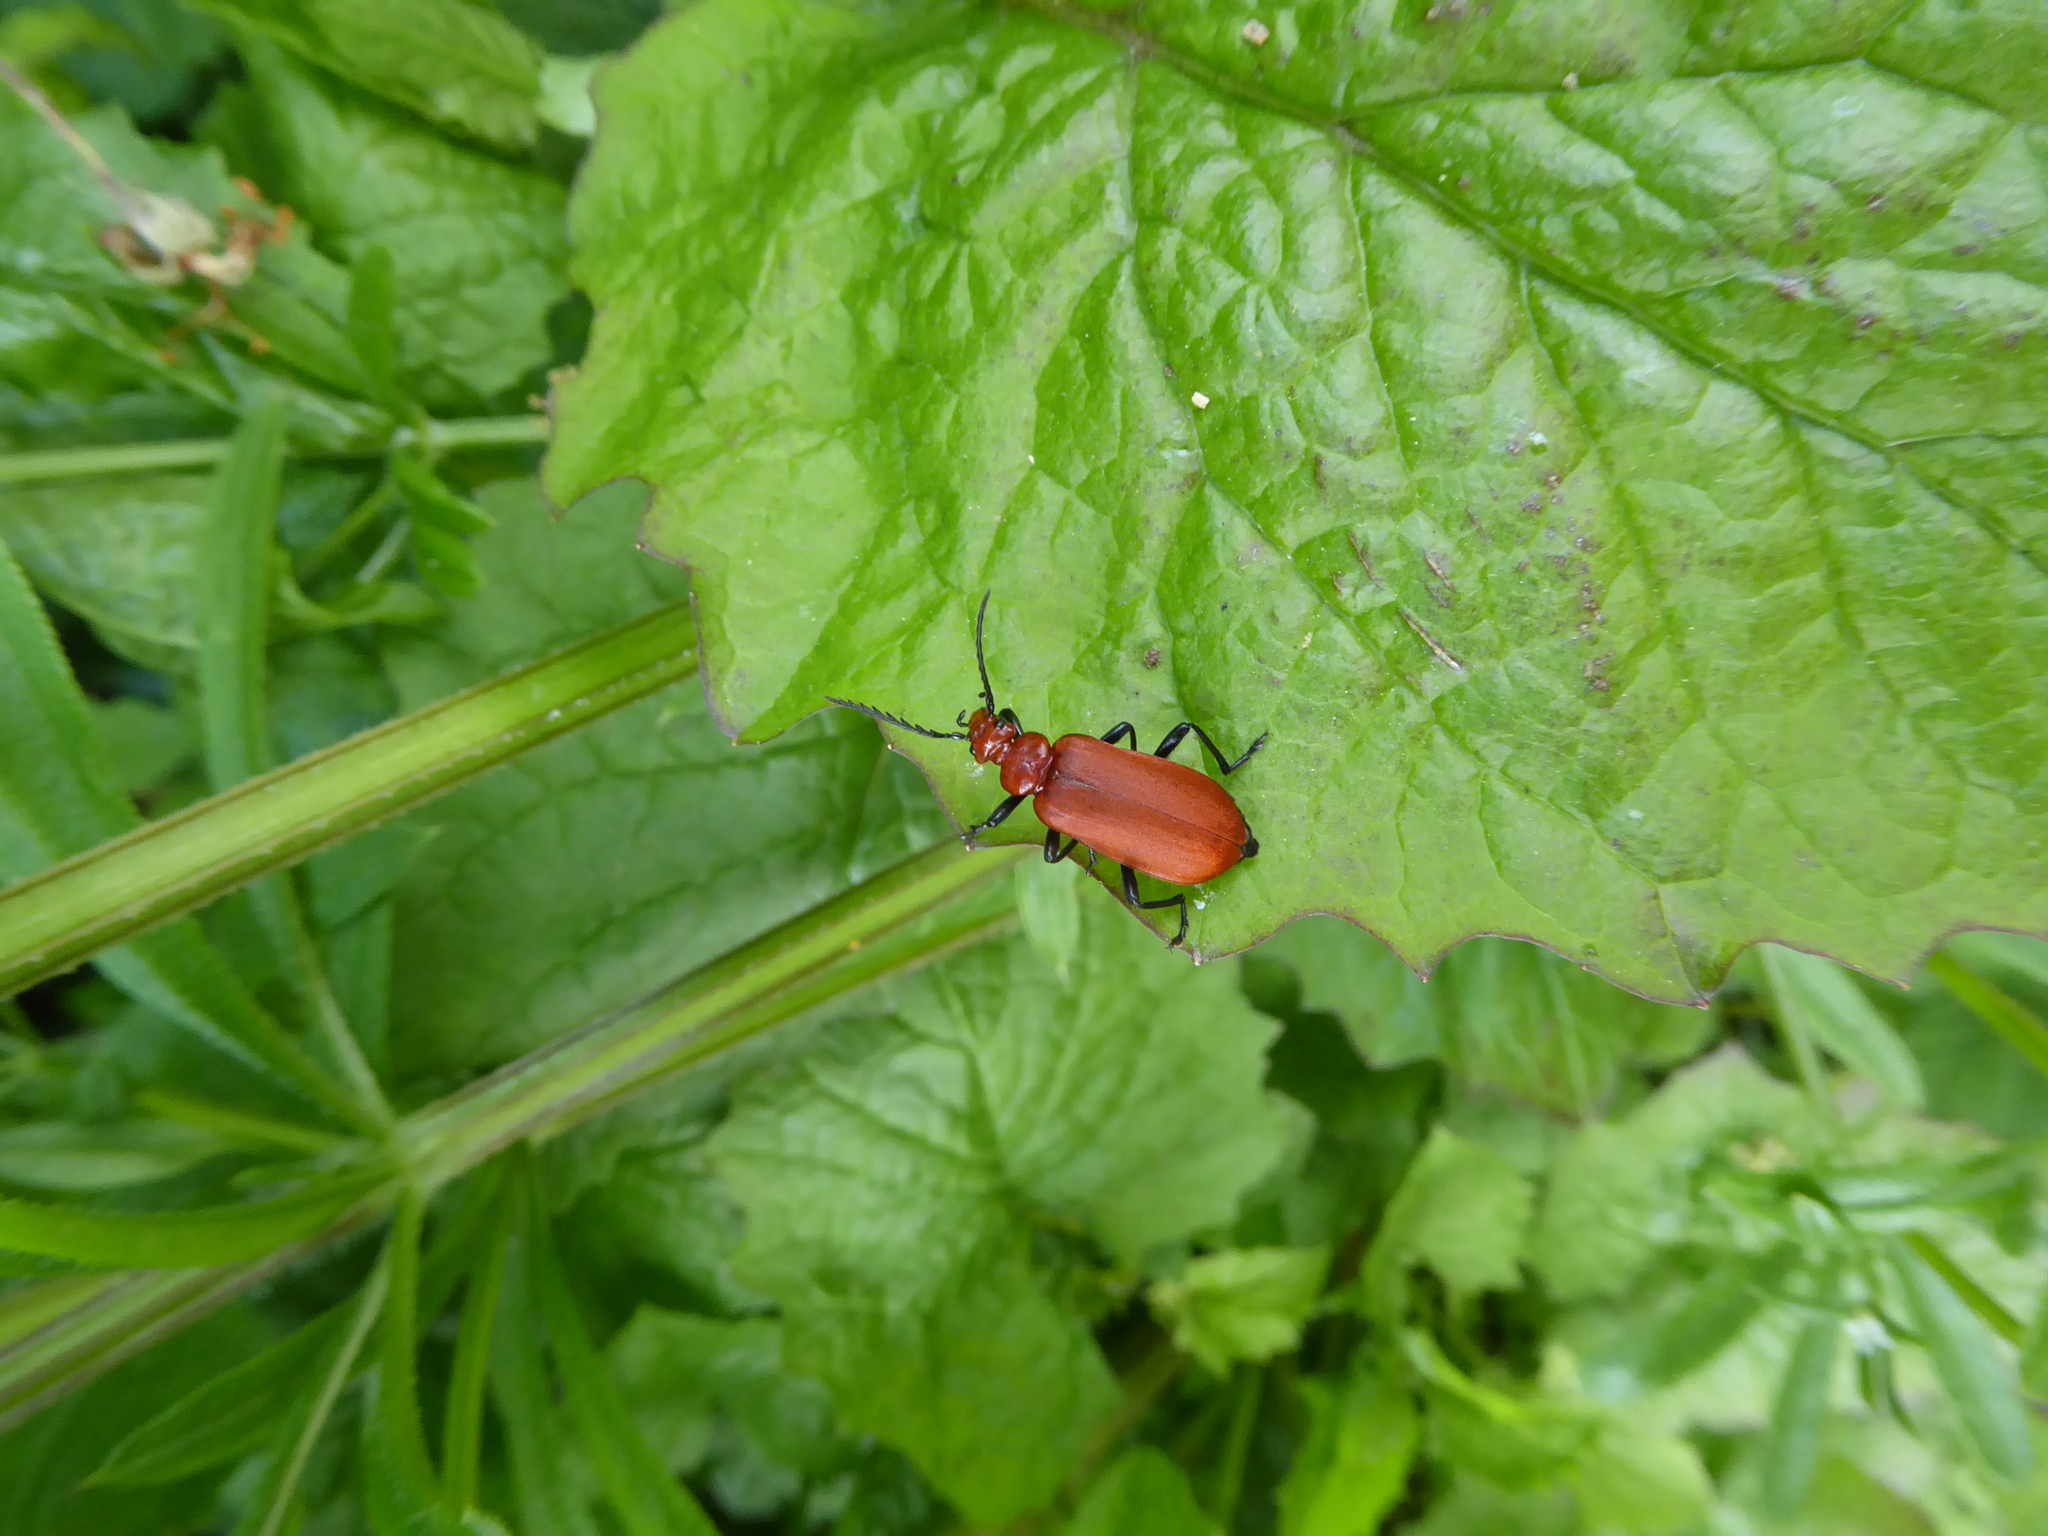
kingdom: Animalia
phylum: Arthropoda
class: Insecta
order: Coleoptera
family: Pyrochroidae
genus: Pyrochroa
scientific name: Pyrochroa serraticornis
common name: Red-headed cardinal beetle
